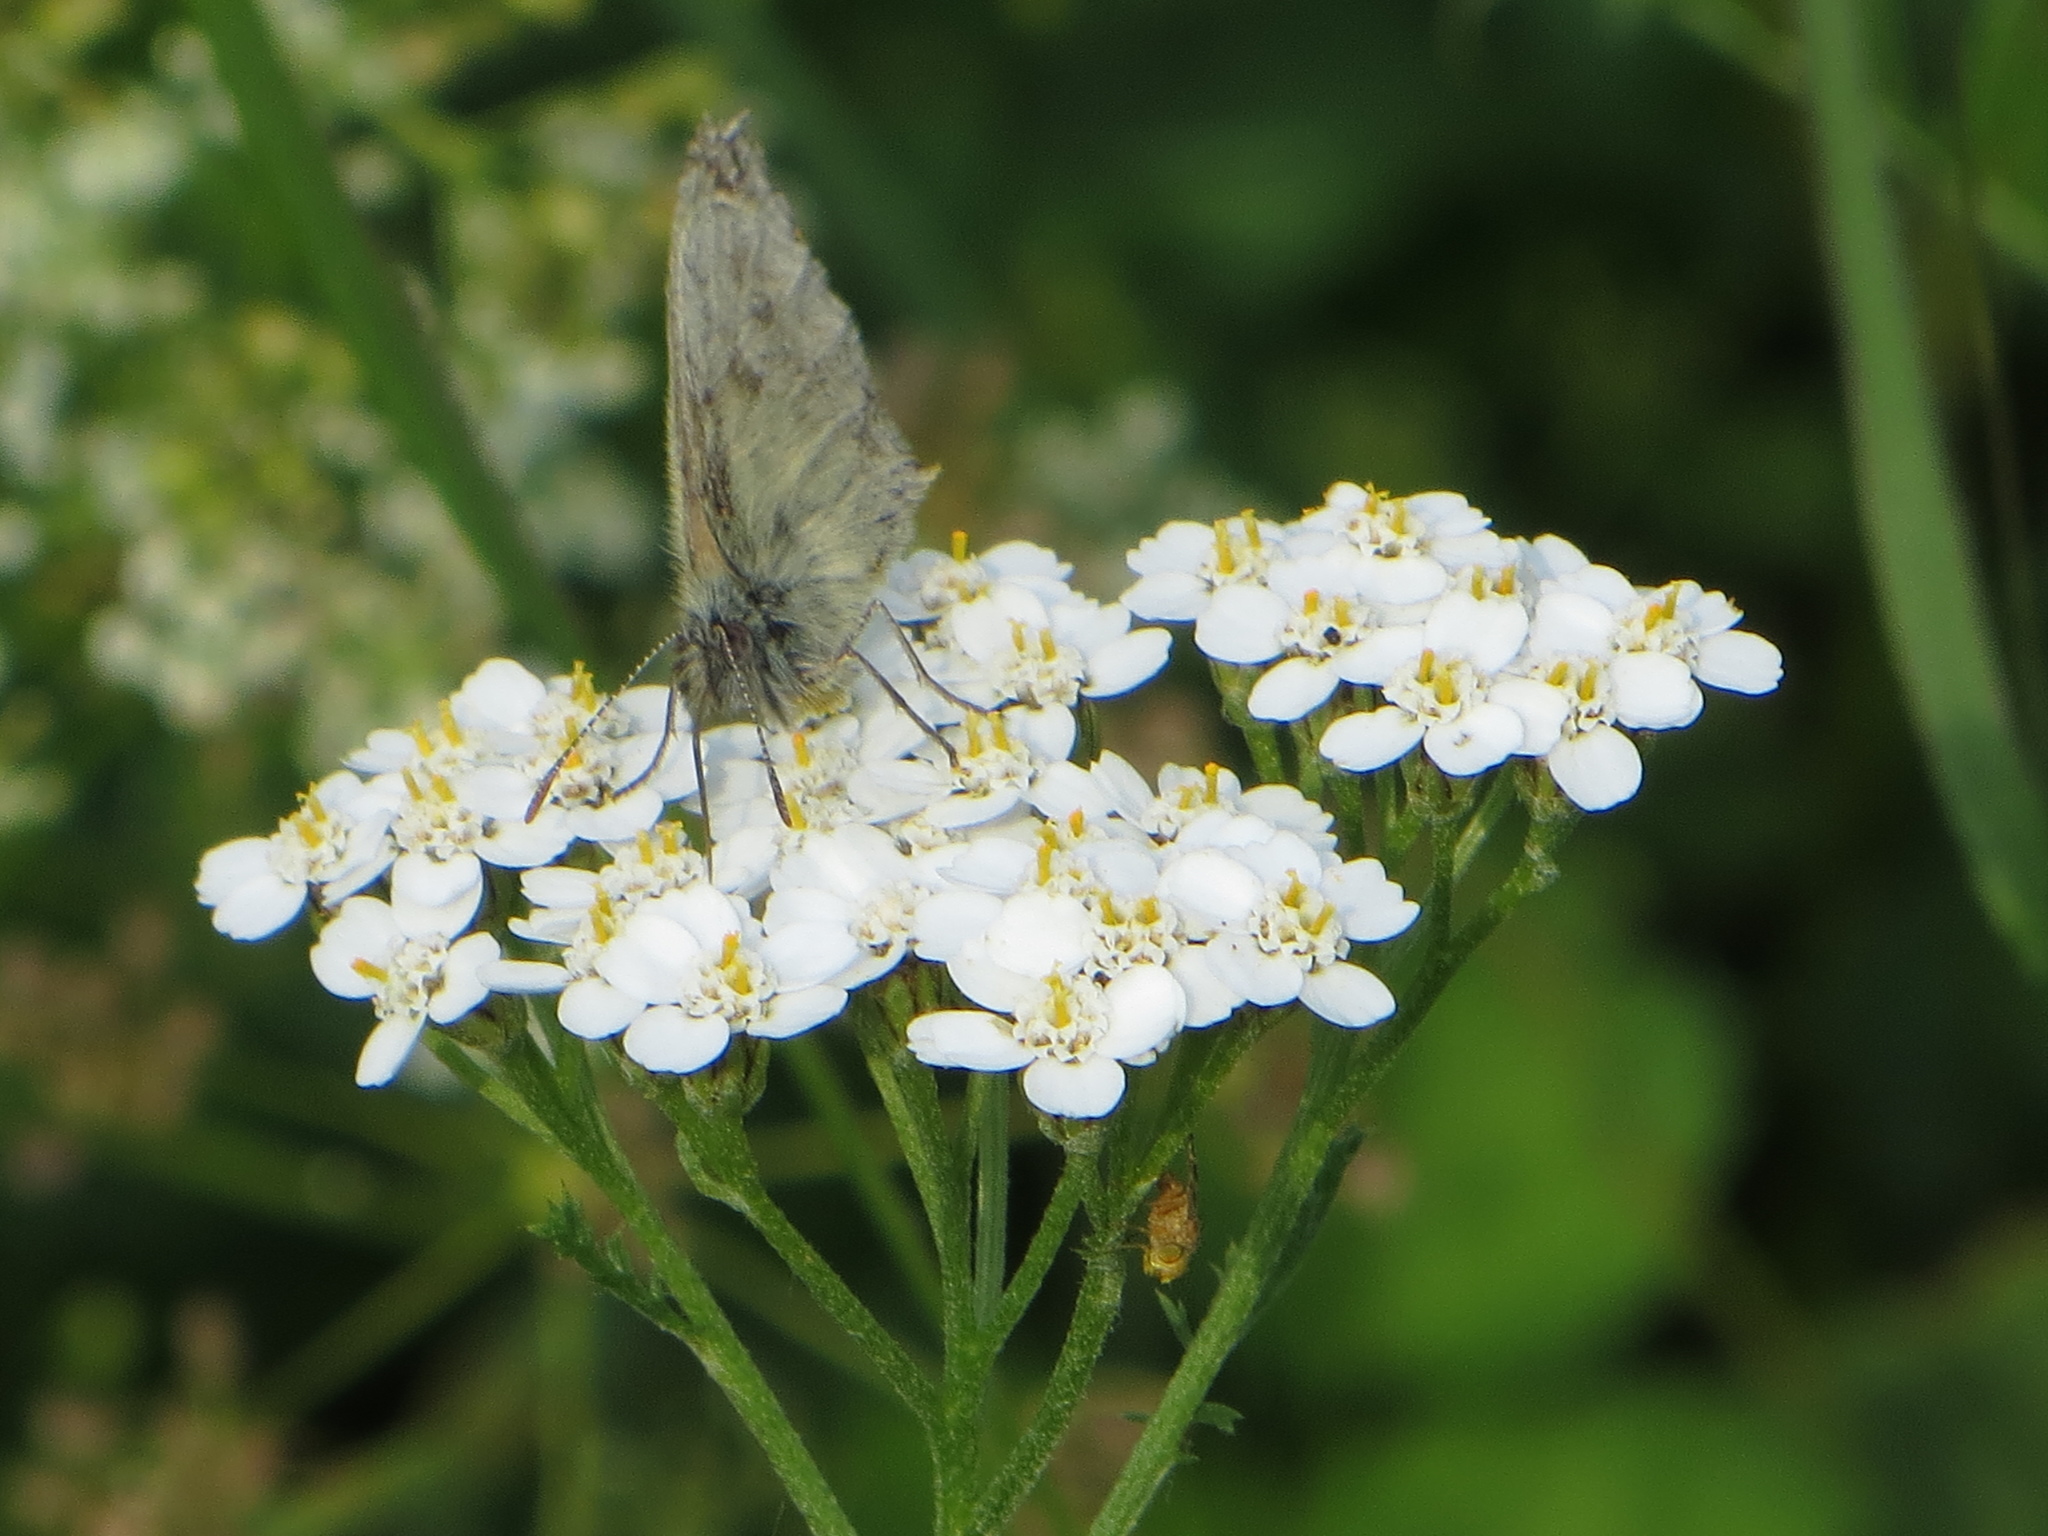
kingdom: Animalia
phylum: Arthropoda
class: Insecta
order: Lepidoptera
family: Nymphalidae
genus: Coenonympha
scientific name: Coenonympha pamphilus
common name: Small heath
